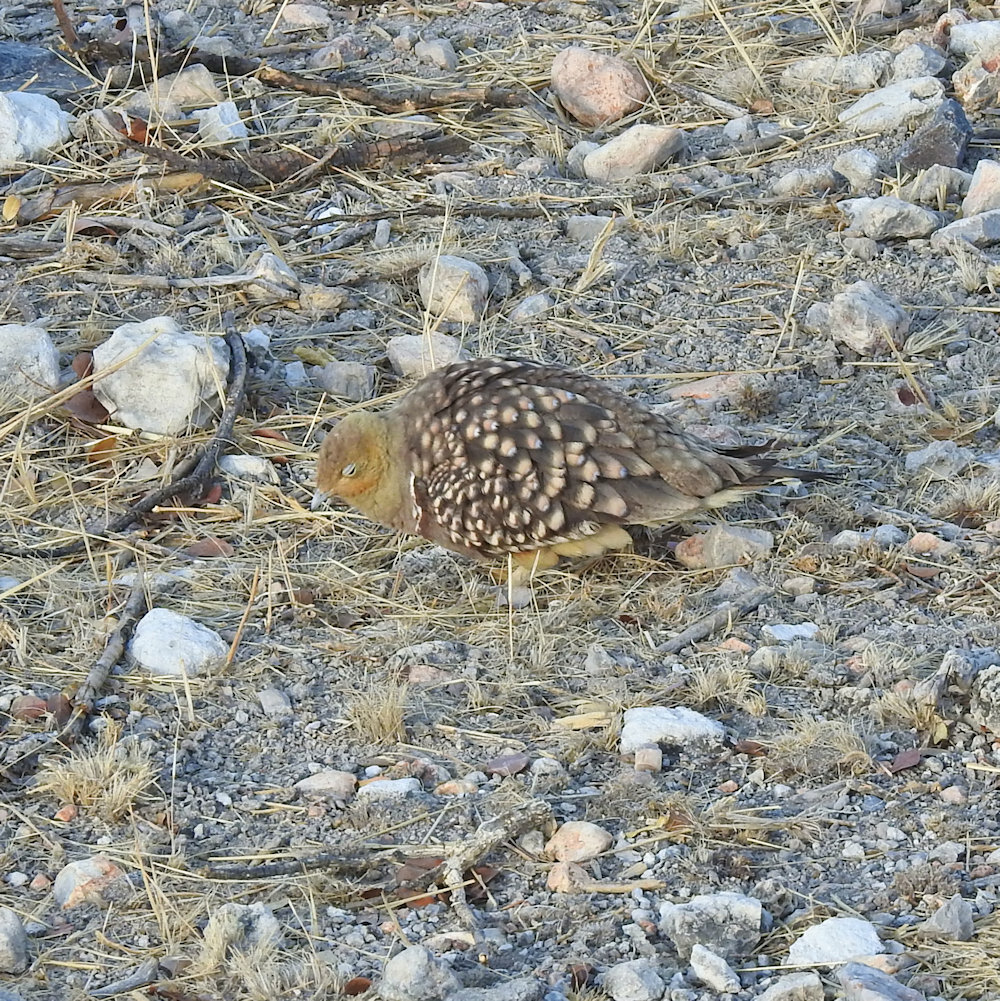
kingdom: Animalia
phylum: Chordata
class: Aves
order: Pteroclidiformes
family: Pteroclididae
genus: Pterocles
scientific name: Pterocles namaqua
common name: Namaqua sandgrouse
